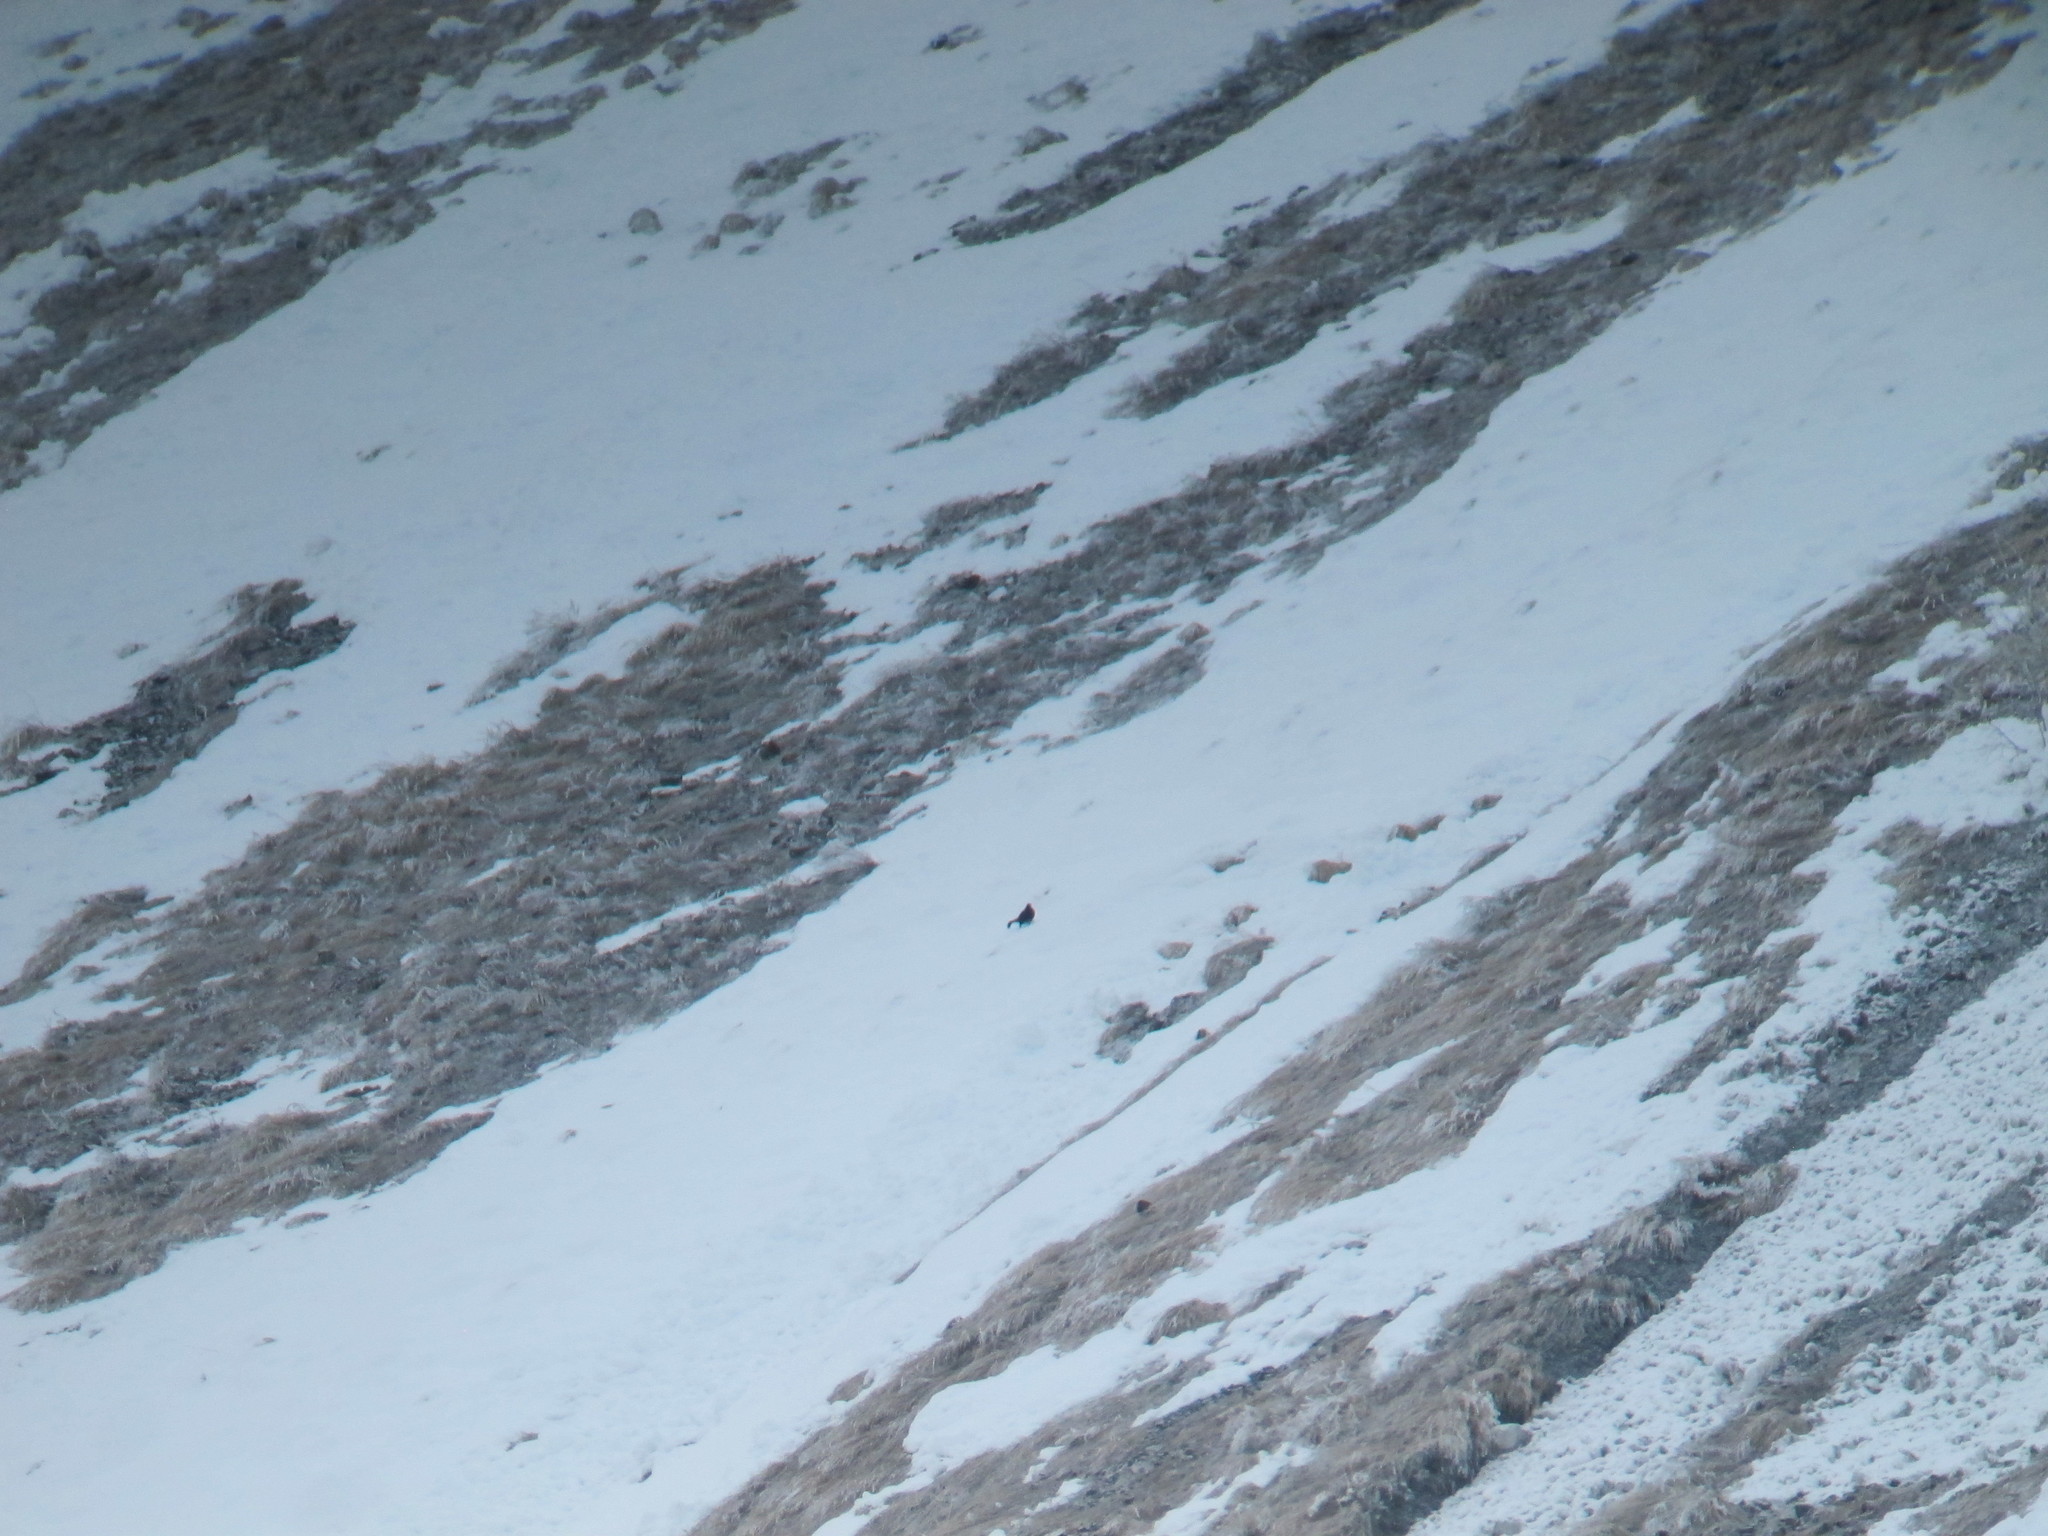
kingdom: Animalia
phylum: Chordata
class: Aves
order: Galliformes
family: Phasianidae
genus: Lyrurus
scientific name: Lyrurus mlokosiewiczi
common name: Caucasian grouse
